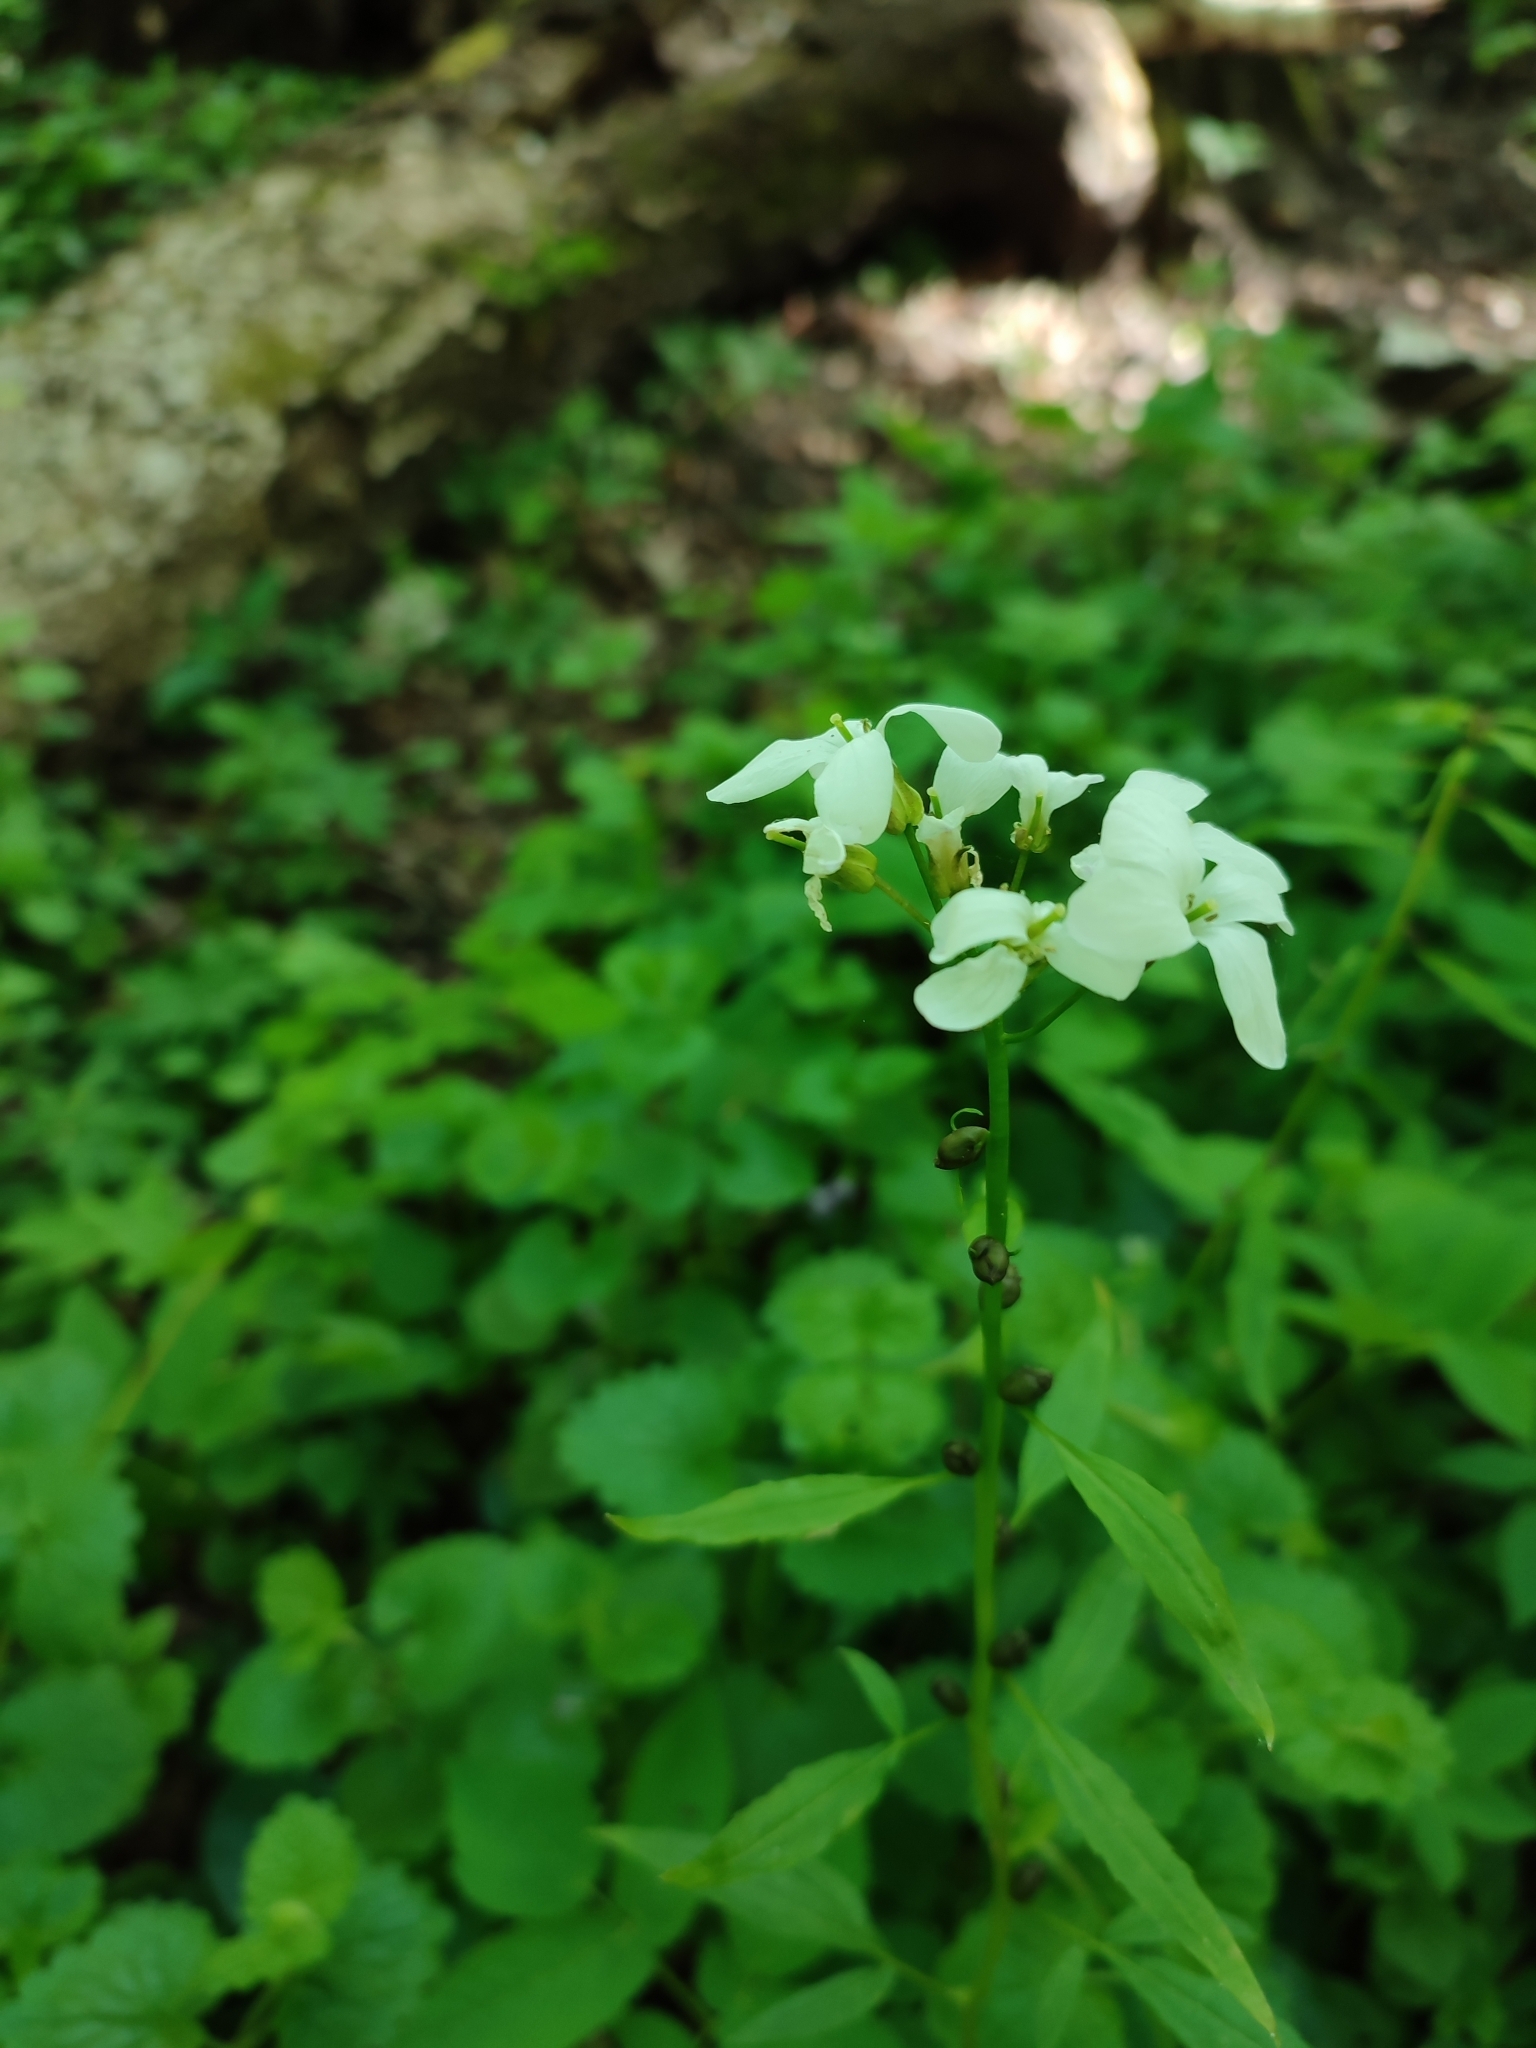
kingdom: Plantae
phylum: Tracheophyta
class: Magnoliopsida
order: Brassicales
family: Brassicaceae
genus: Cardamine
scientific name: Cardamine bulbifera
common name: Coralroot bittercress
